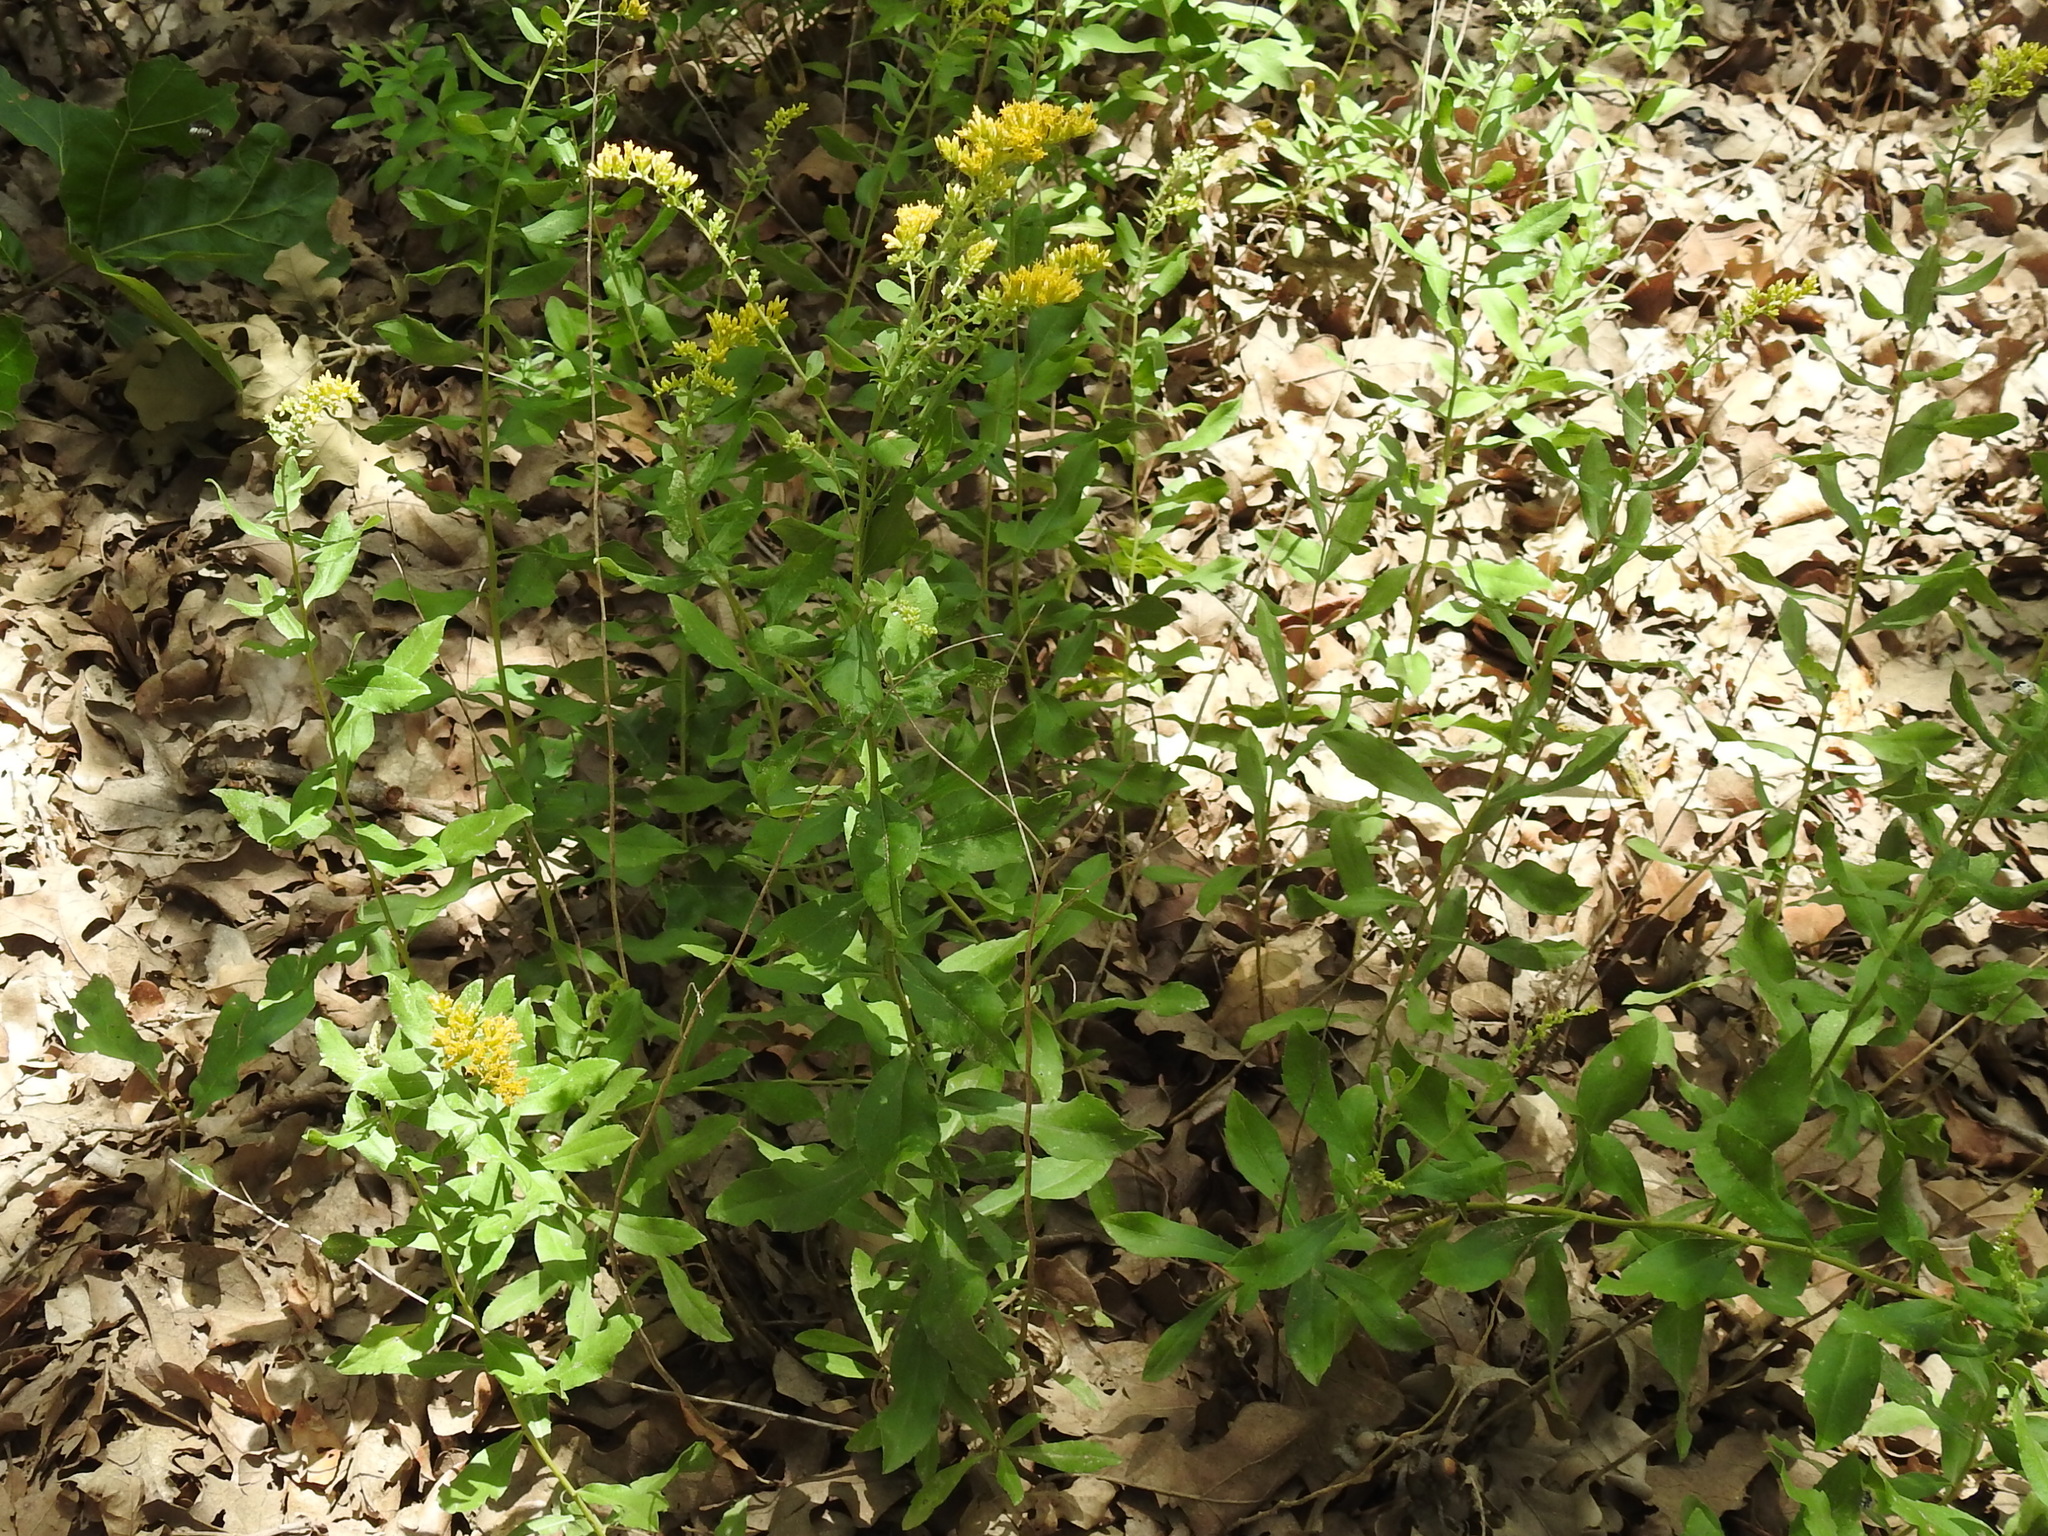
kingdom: Plantae
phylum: Tracheophyta
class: Magnoliopsida
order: Asterales
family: Asteraceae
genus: Solidago
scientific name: Solidago radula
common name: Western rough goldenrod
